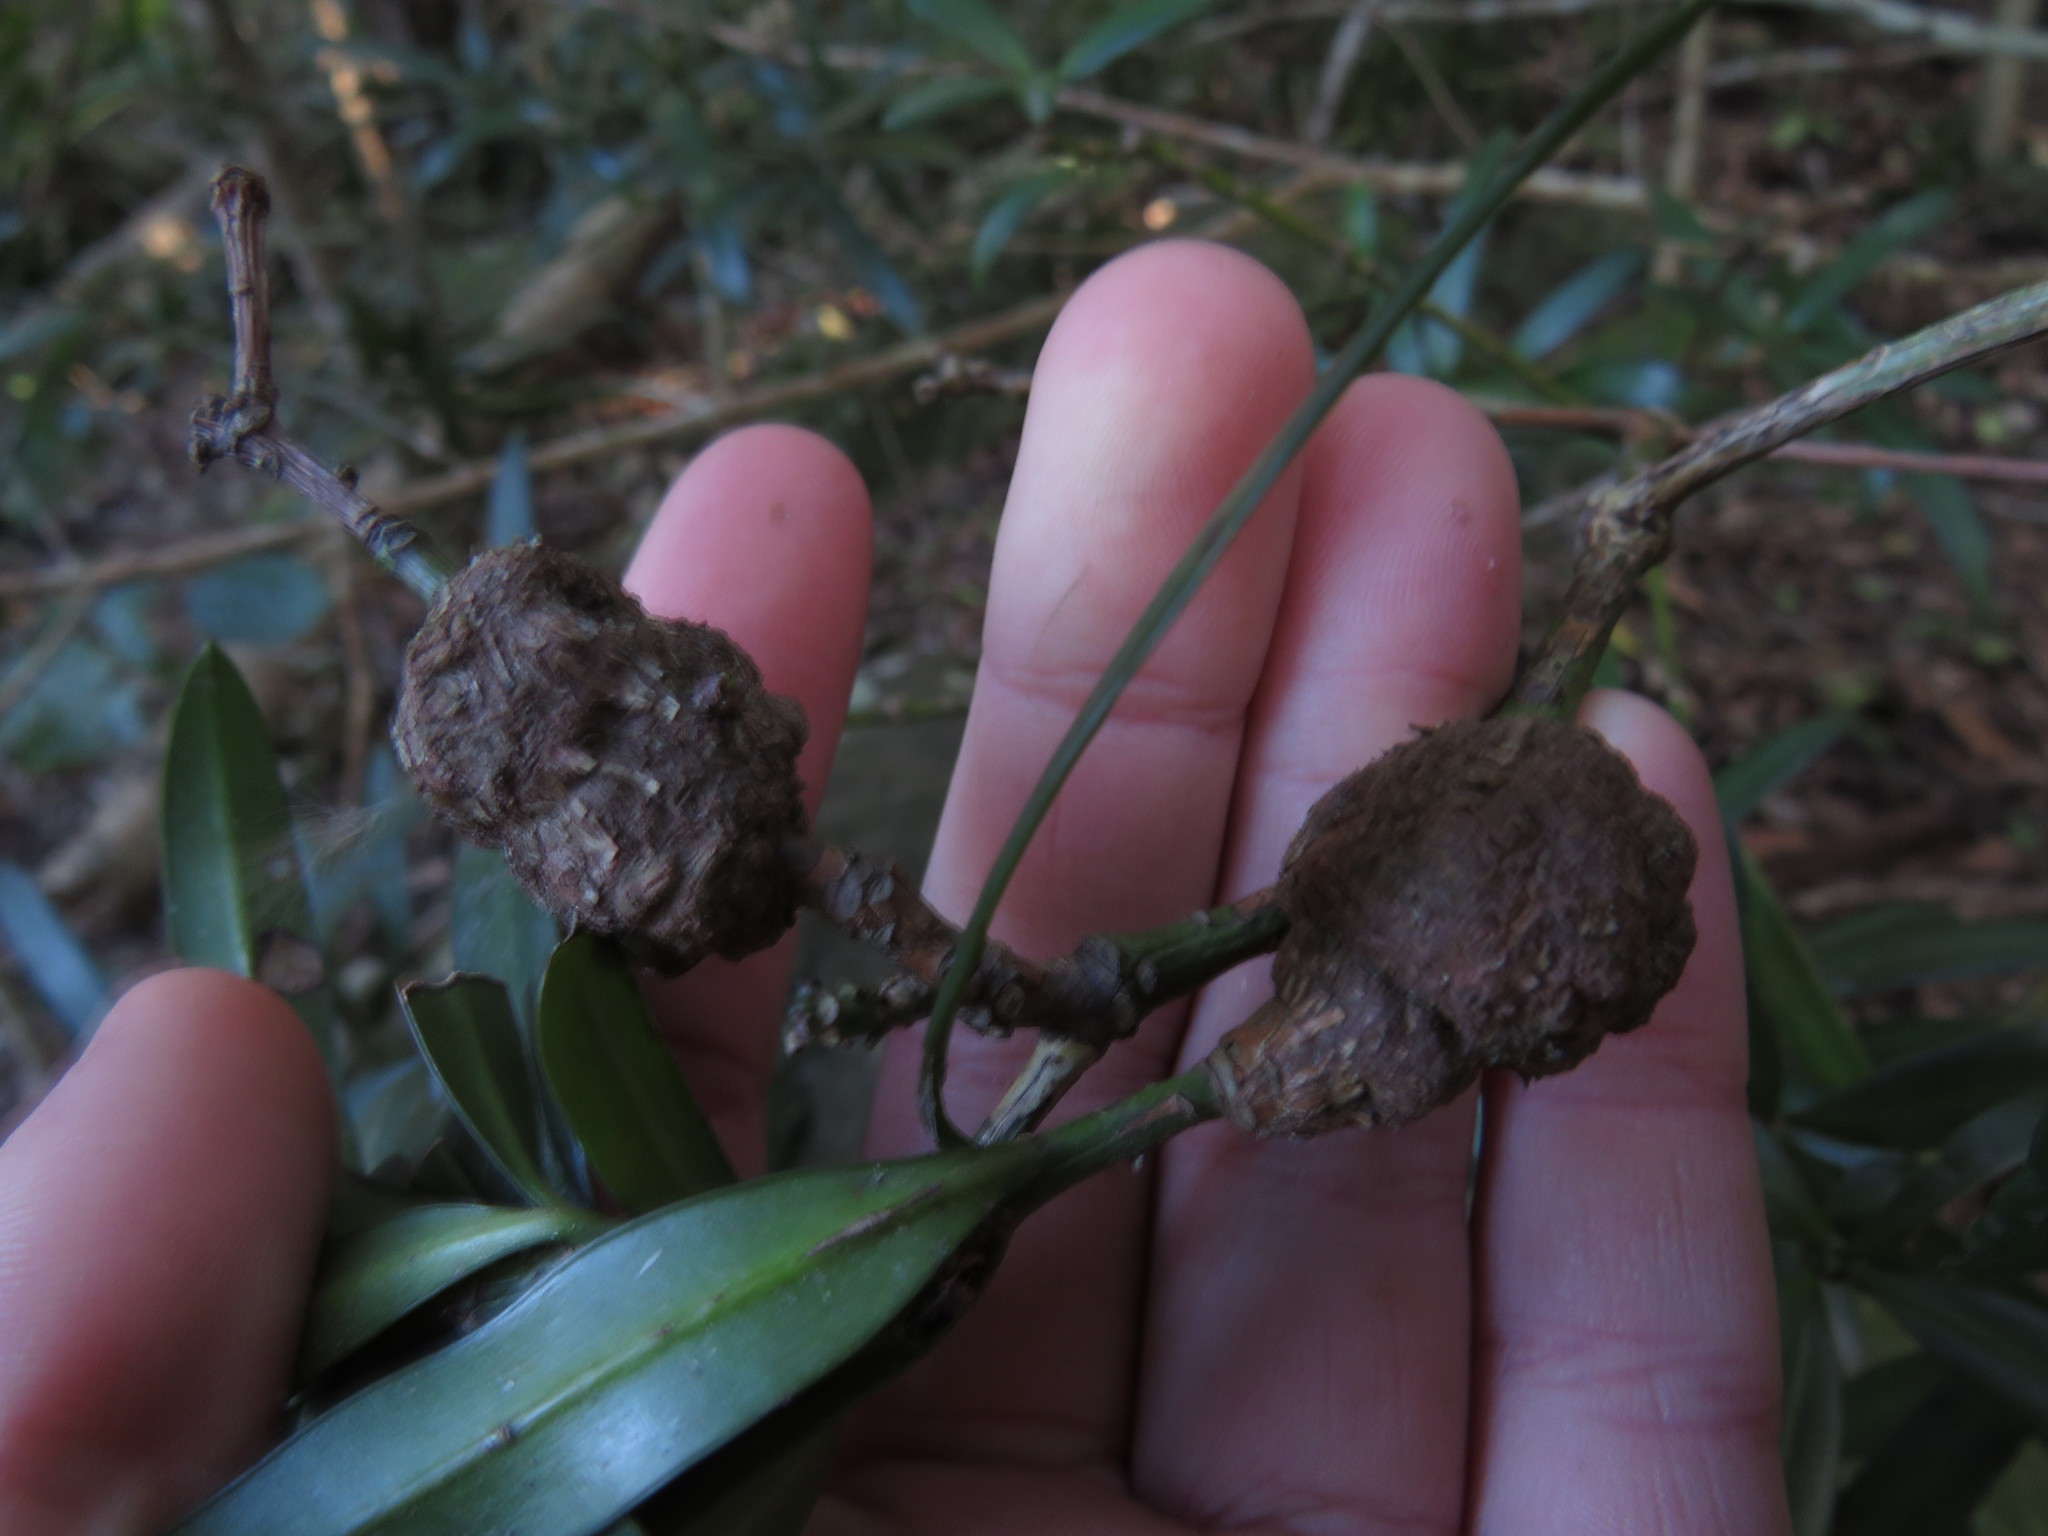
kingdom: Plantae
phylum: Tracheophyta
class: Pinopsida
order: Pinales
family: Podocarpaceae
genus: Podocarpus
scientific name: Podocarpus latifolius
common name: True yellowwood
